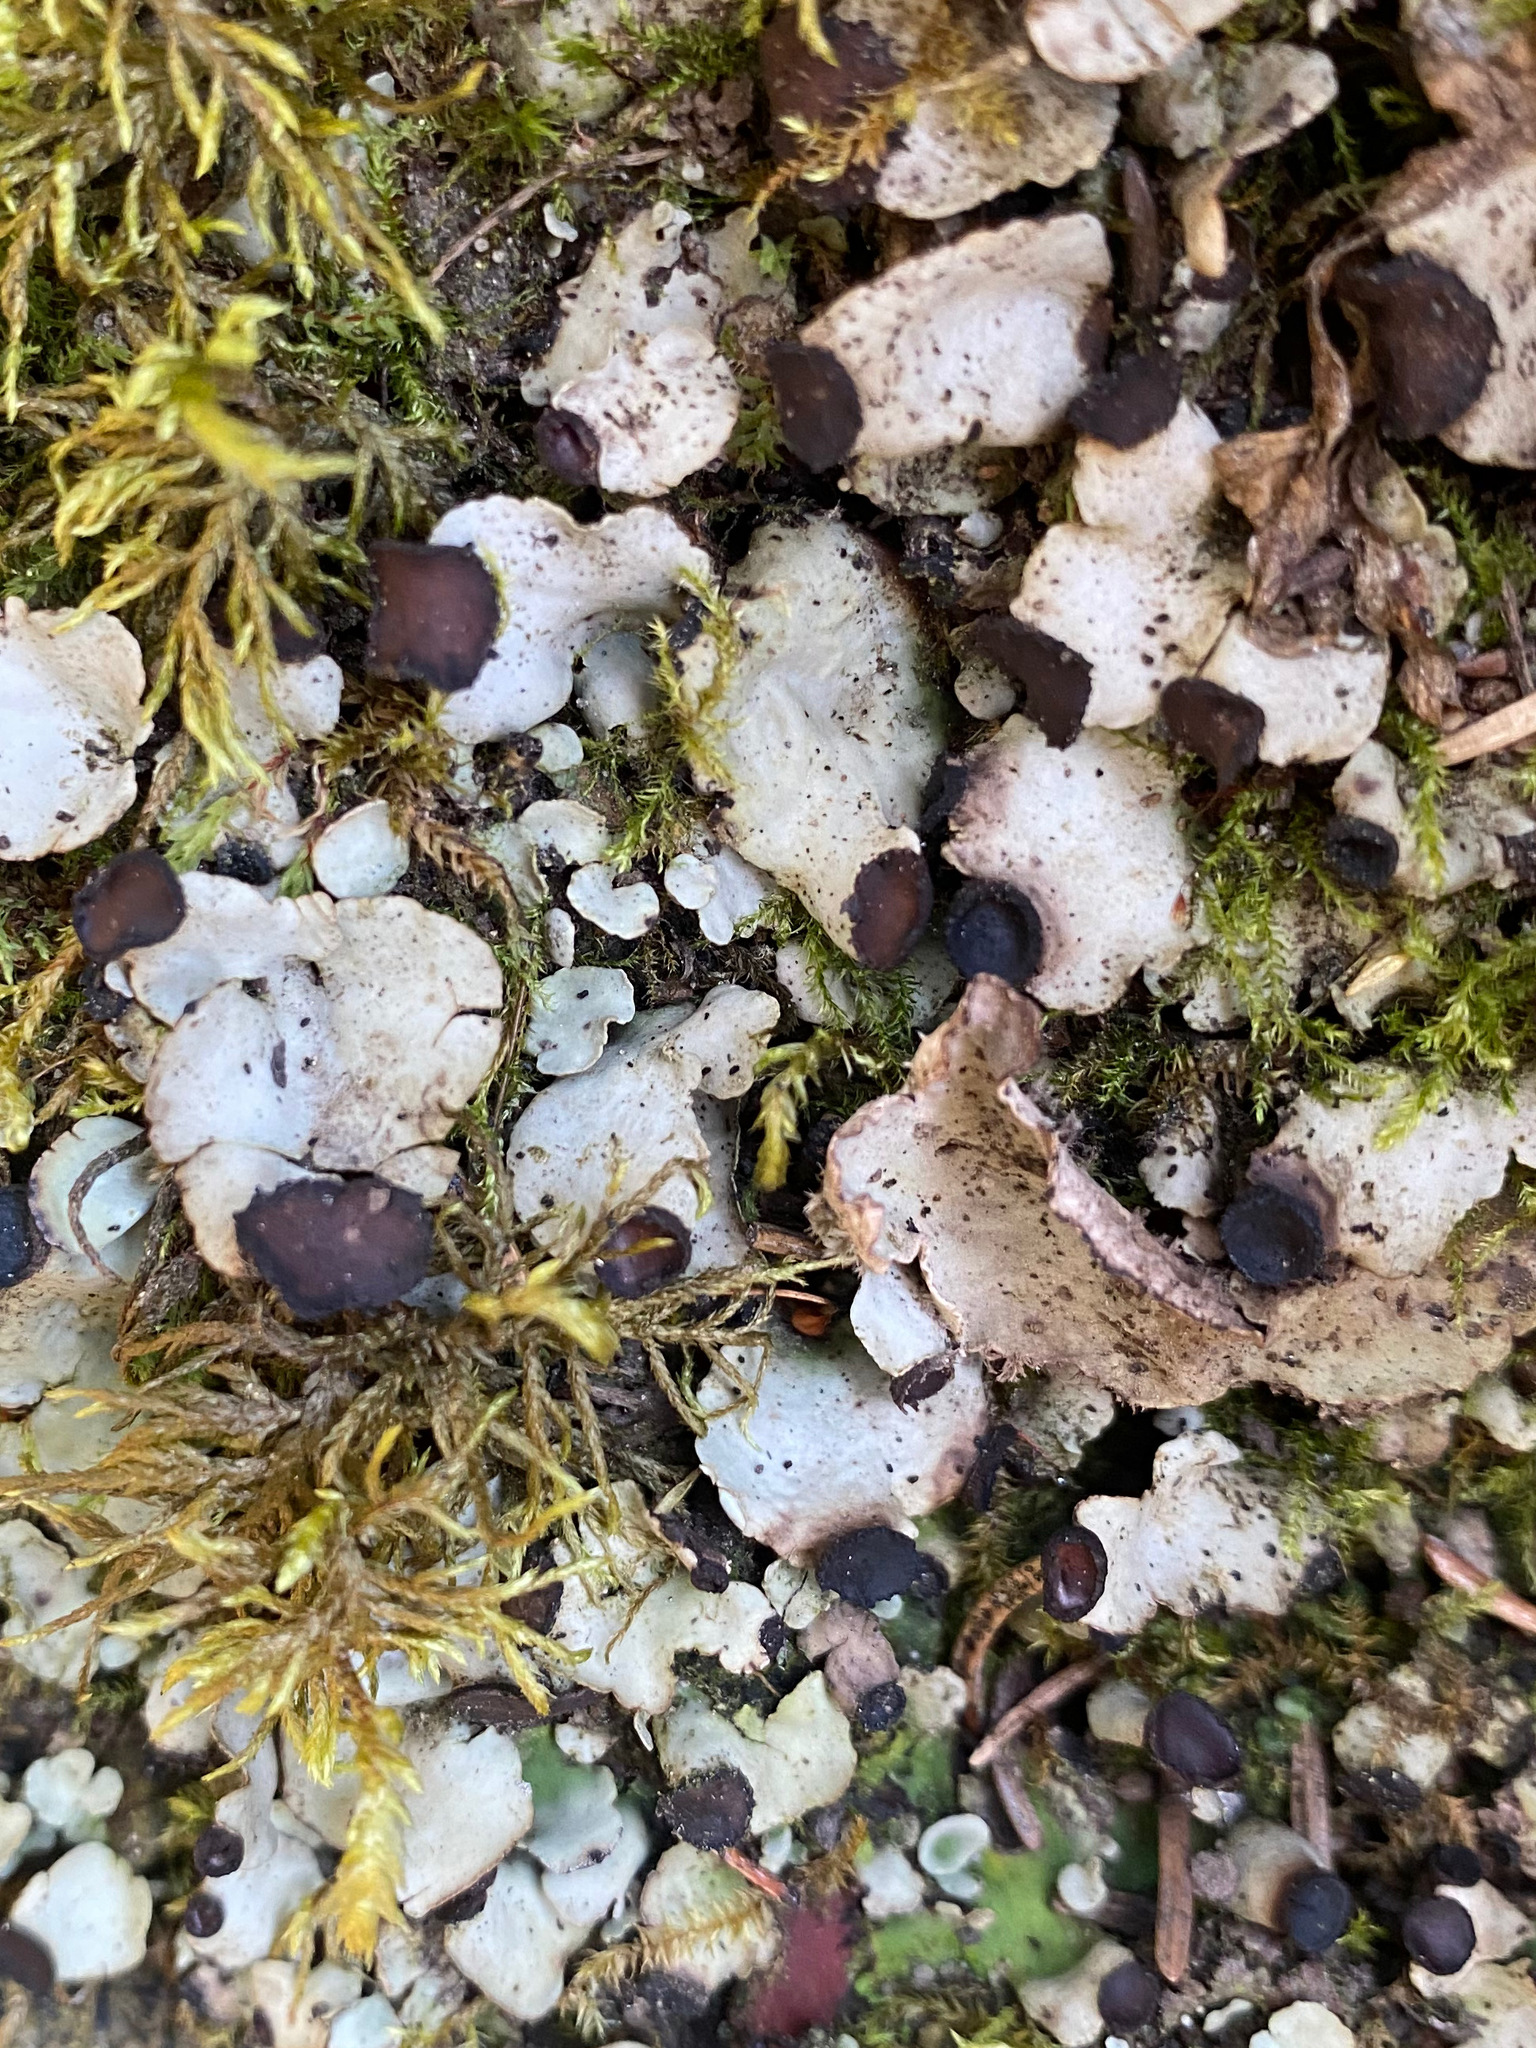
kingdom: Fungi
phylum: Ascomycota
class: Lecanoromycetes
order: Peltigerales
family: Peltigeraceae
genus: Peltigera
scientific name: Peltigera venosa
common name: Pixie gowns lichen
